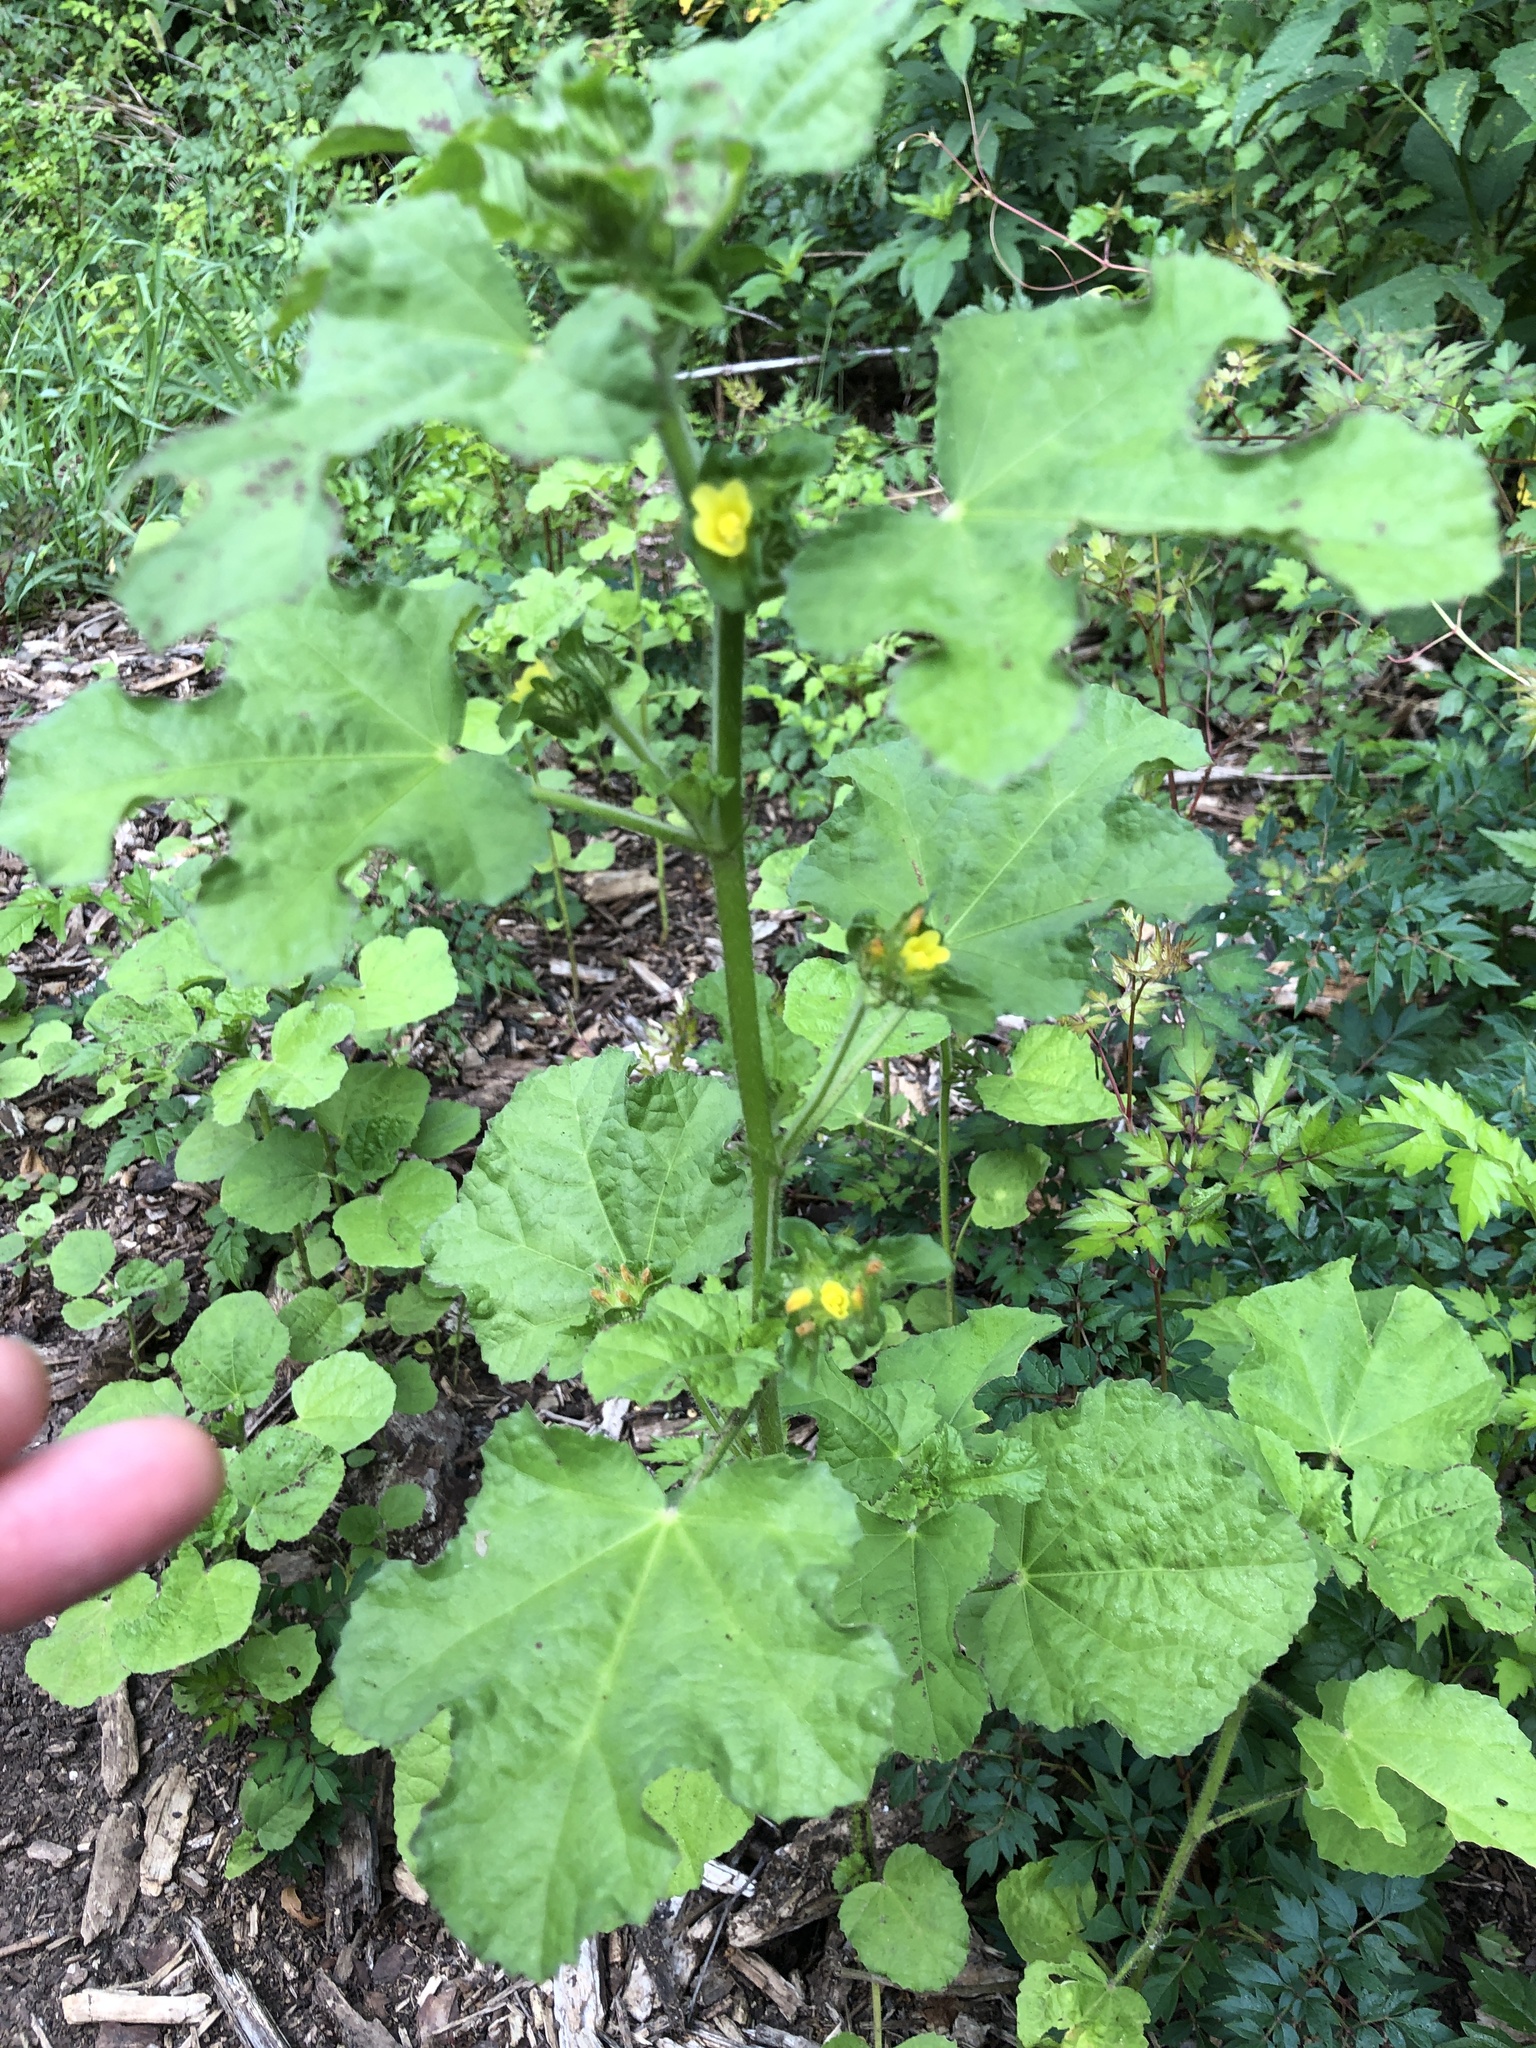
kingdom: Plantae
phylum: Tracheophyta
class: Magnoliopsida
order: Malvales
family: Malvaceae
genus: Malachra
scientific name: Malachra capitata
